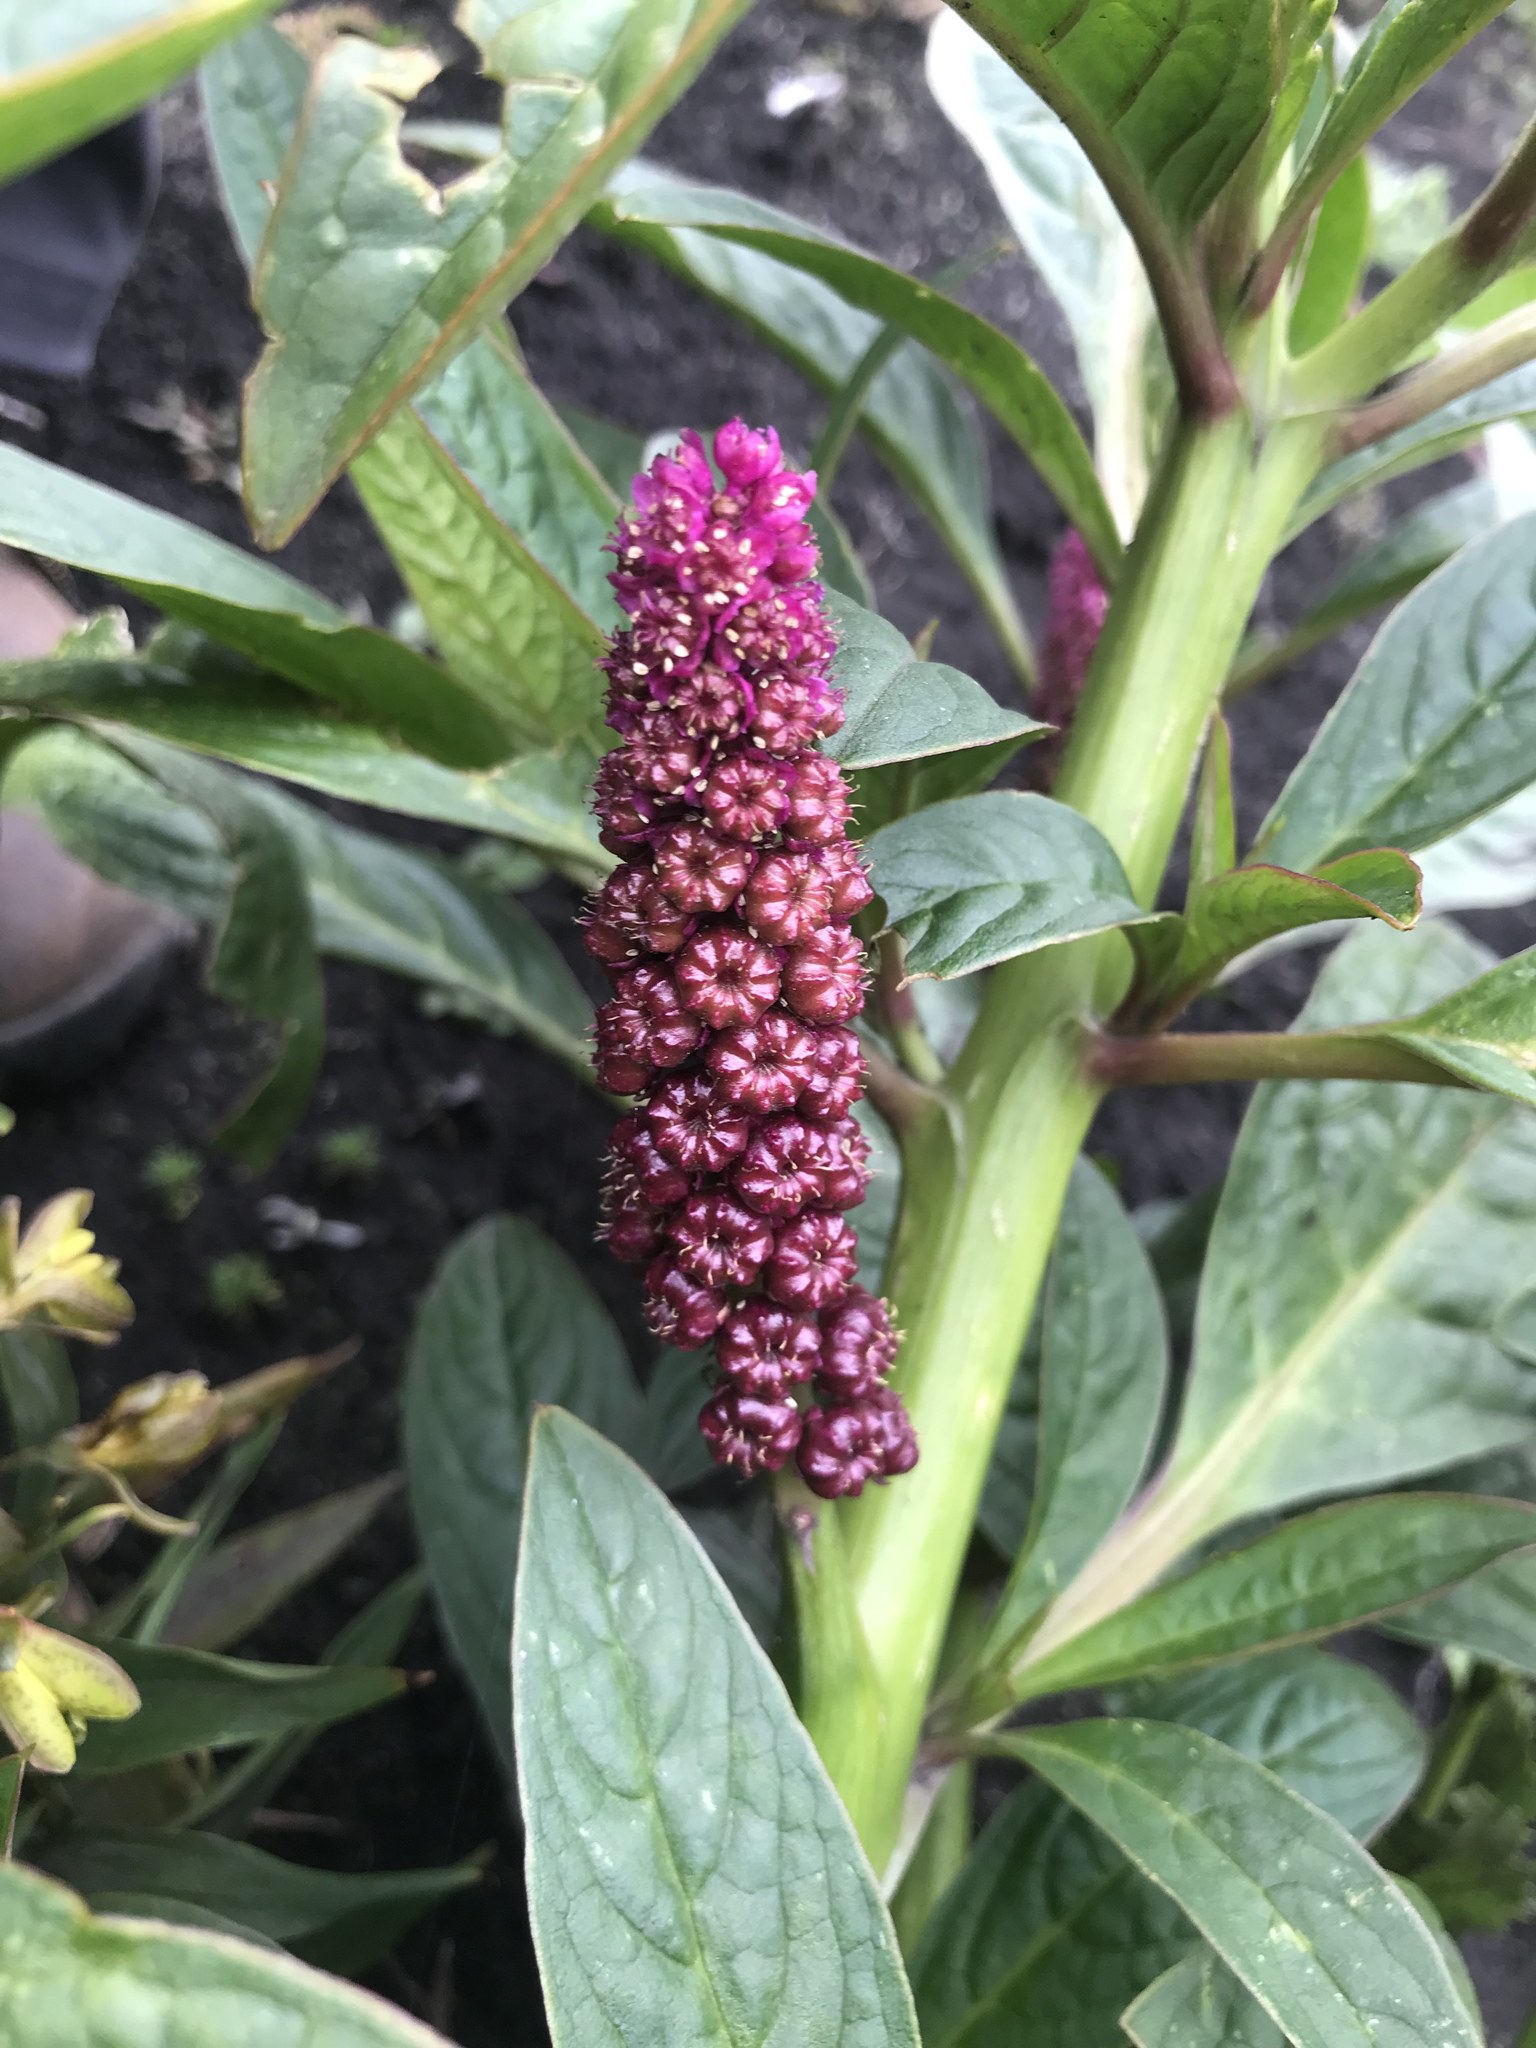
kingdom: Plantae
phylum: Tracheophyta
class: Magnoliopsida
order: Caryophyllales
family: Phytolaccaceae
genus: Phytolacca
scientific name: Phytolacca bogotensis
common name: Southern pokeweed
